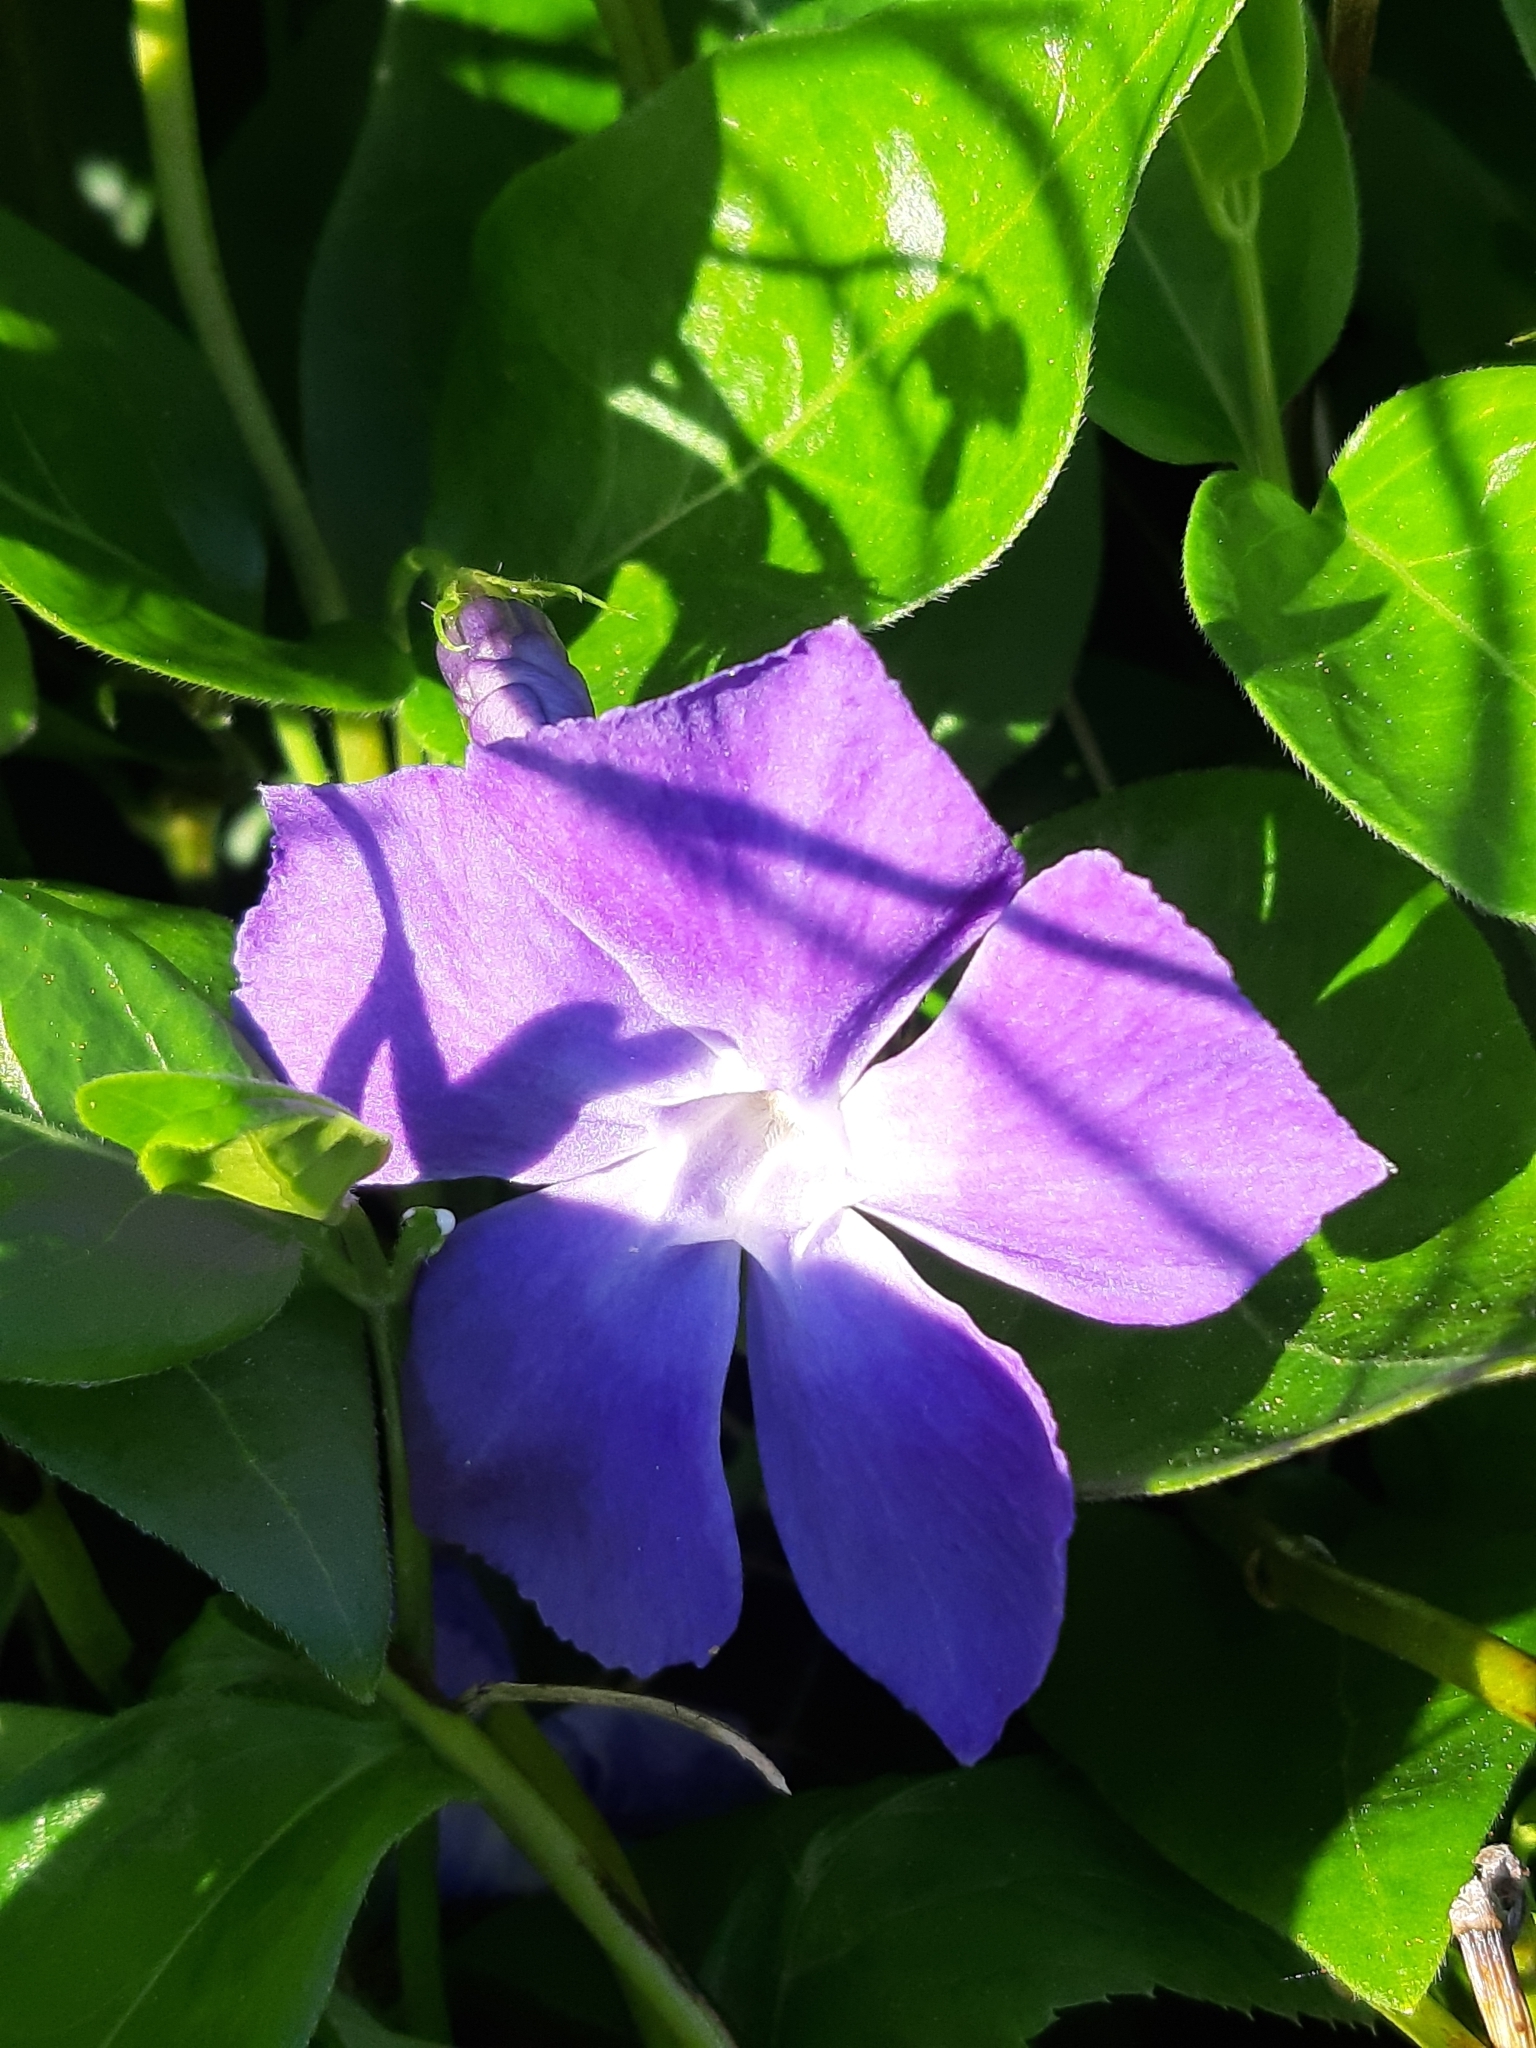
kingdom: Plantae
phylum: Tracheophyta
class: Magnoliopsida
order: Gentianales
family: Apocynaceae
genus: Vinca
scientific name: Vinca major
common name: Greater periwinkle
